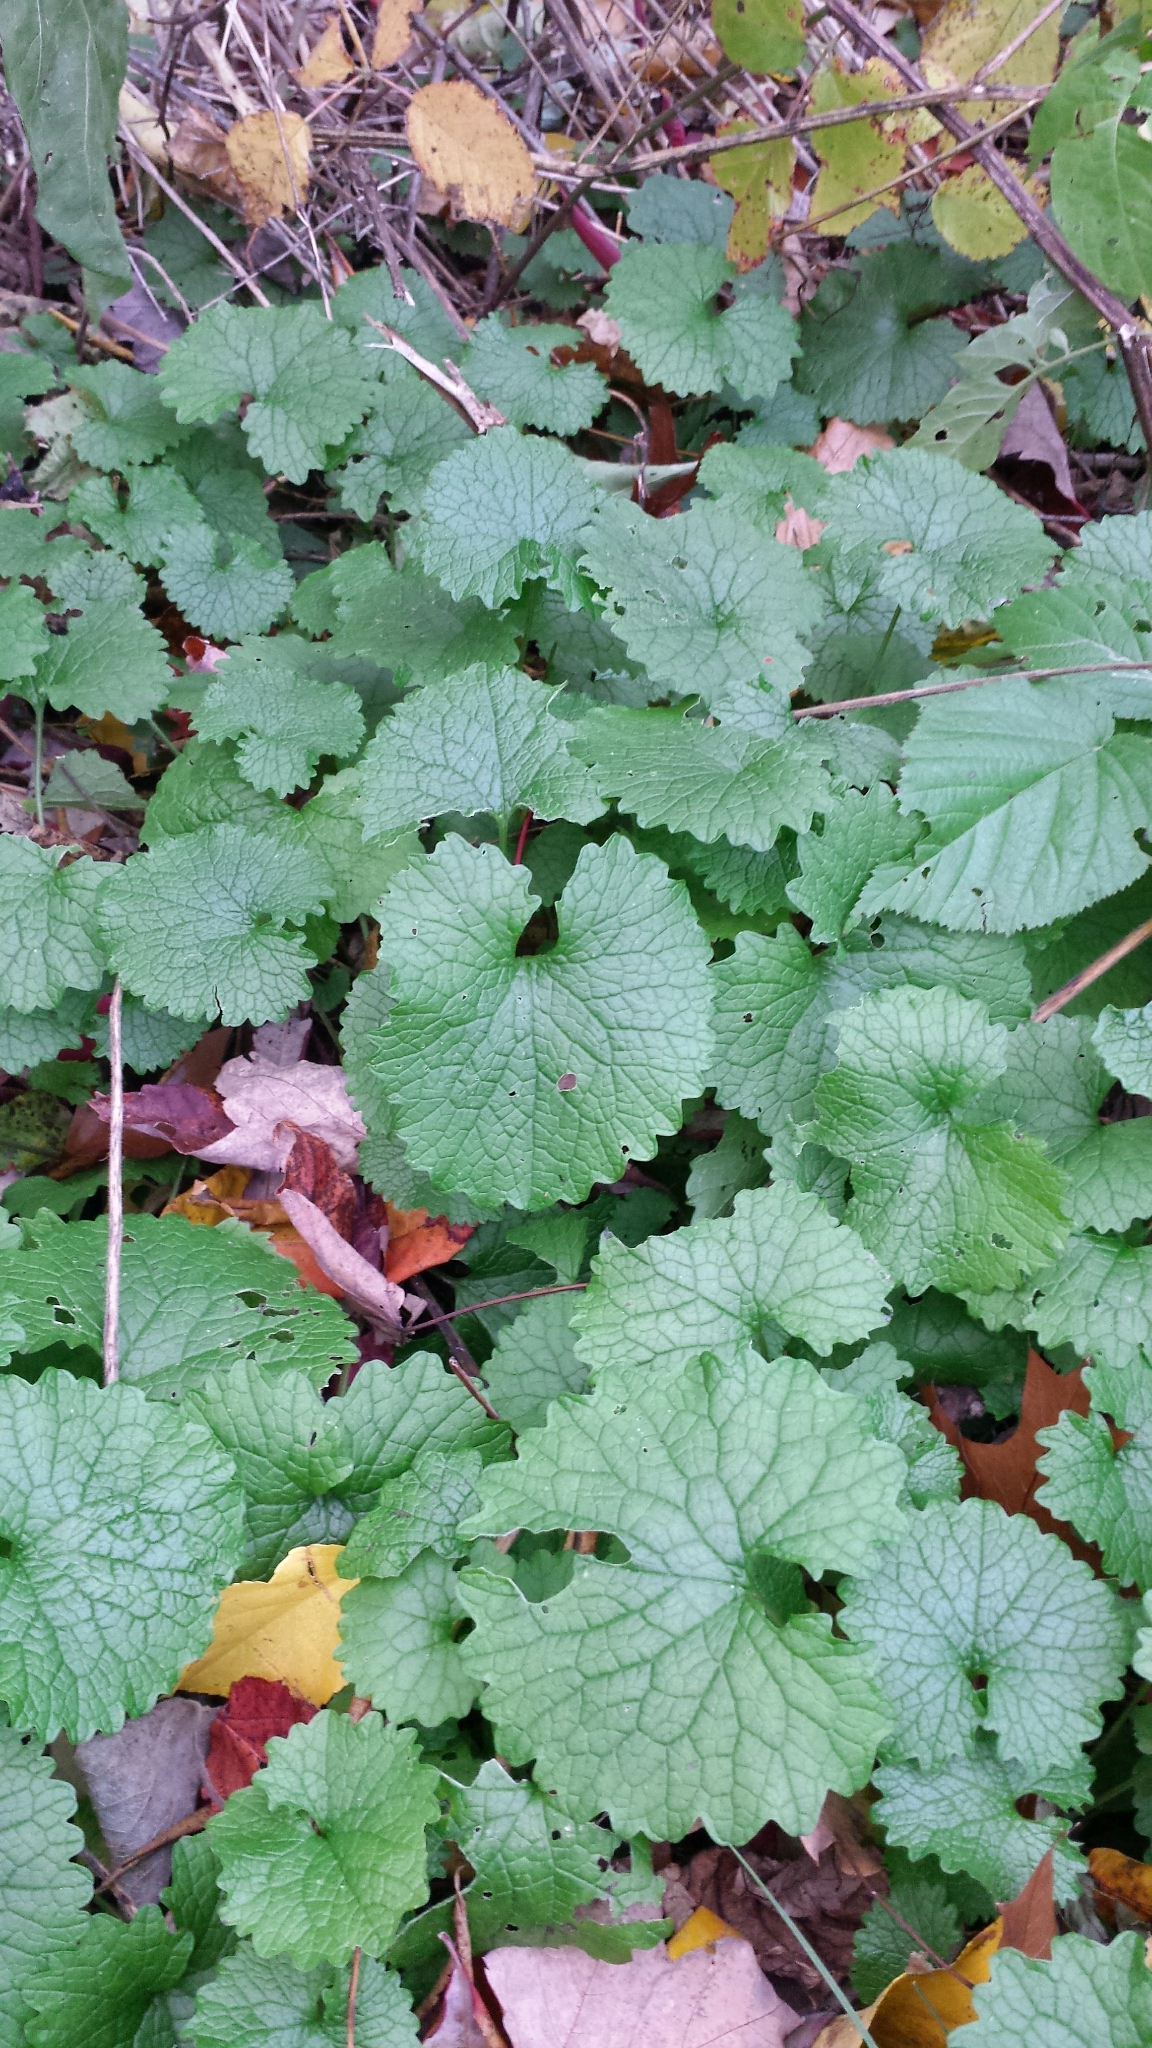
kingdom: Plantae
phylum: Tracheophyta
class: Magnoliopsida
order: Brassicales
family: Brassicaceae
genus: Alliaria
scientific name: Alliaria petiolata
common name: Garlic mustard
